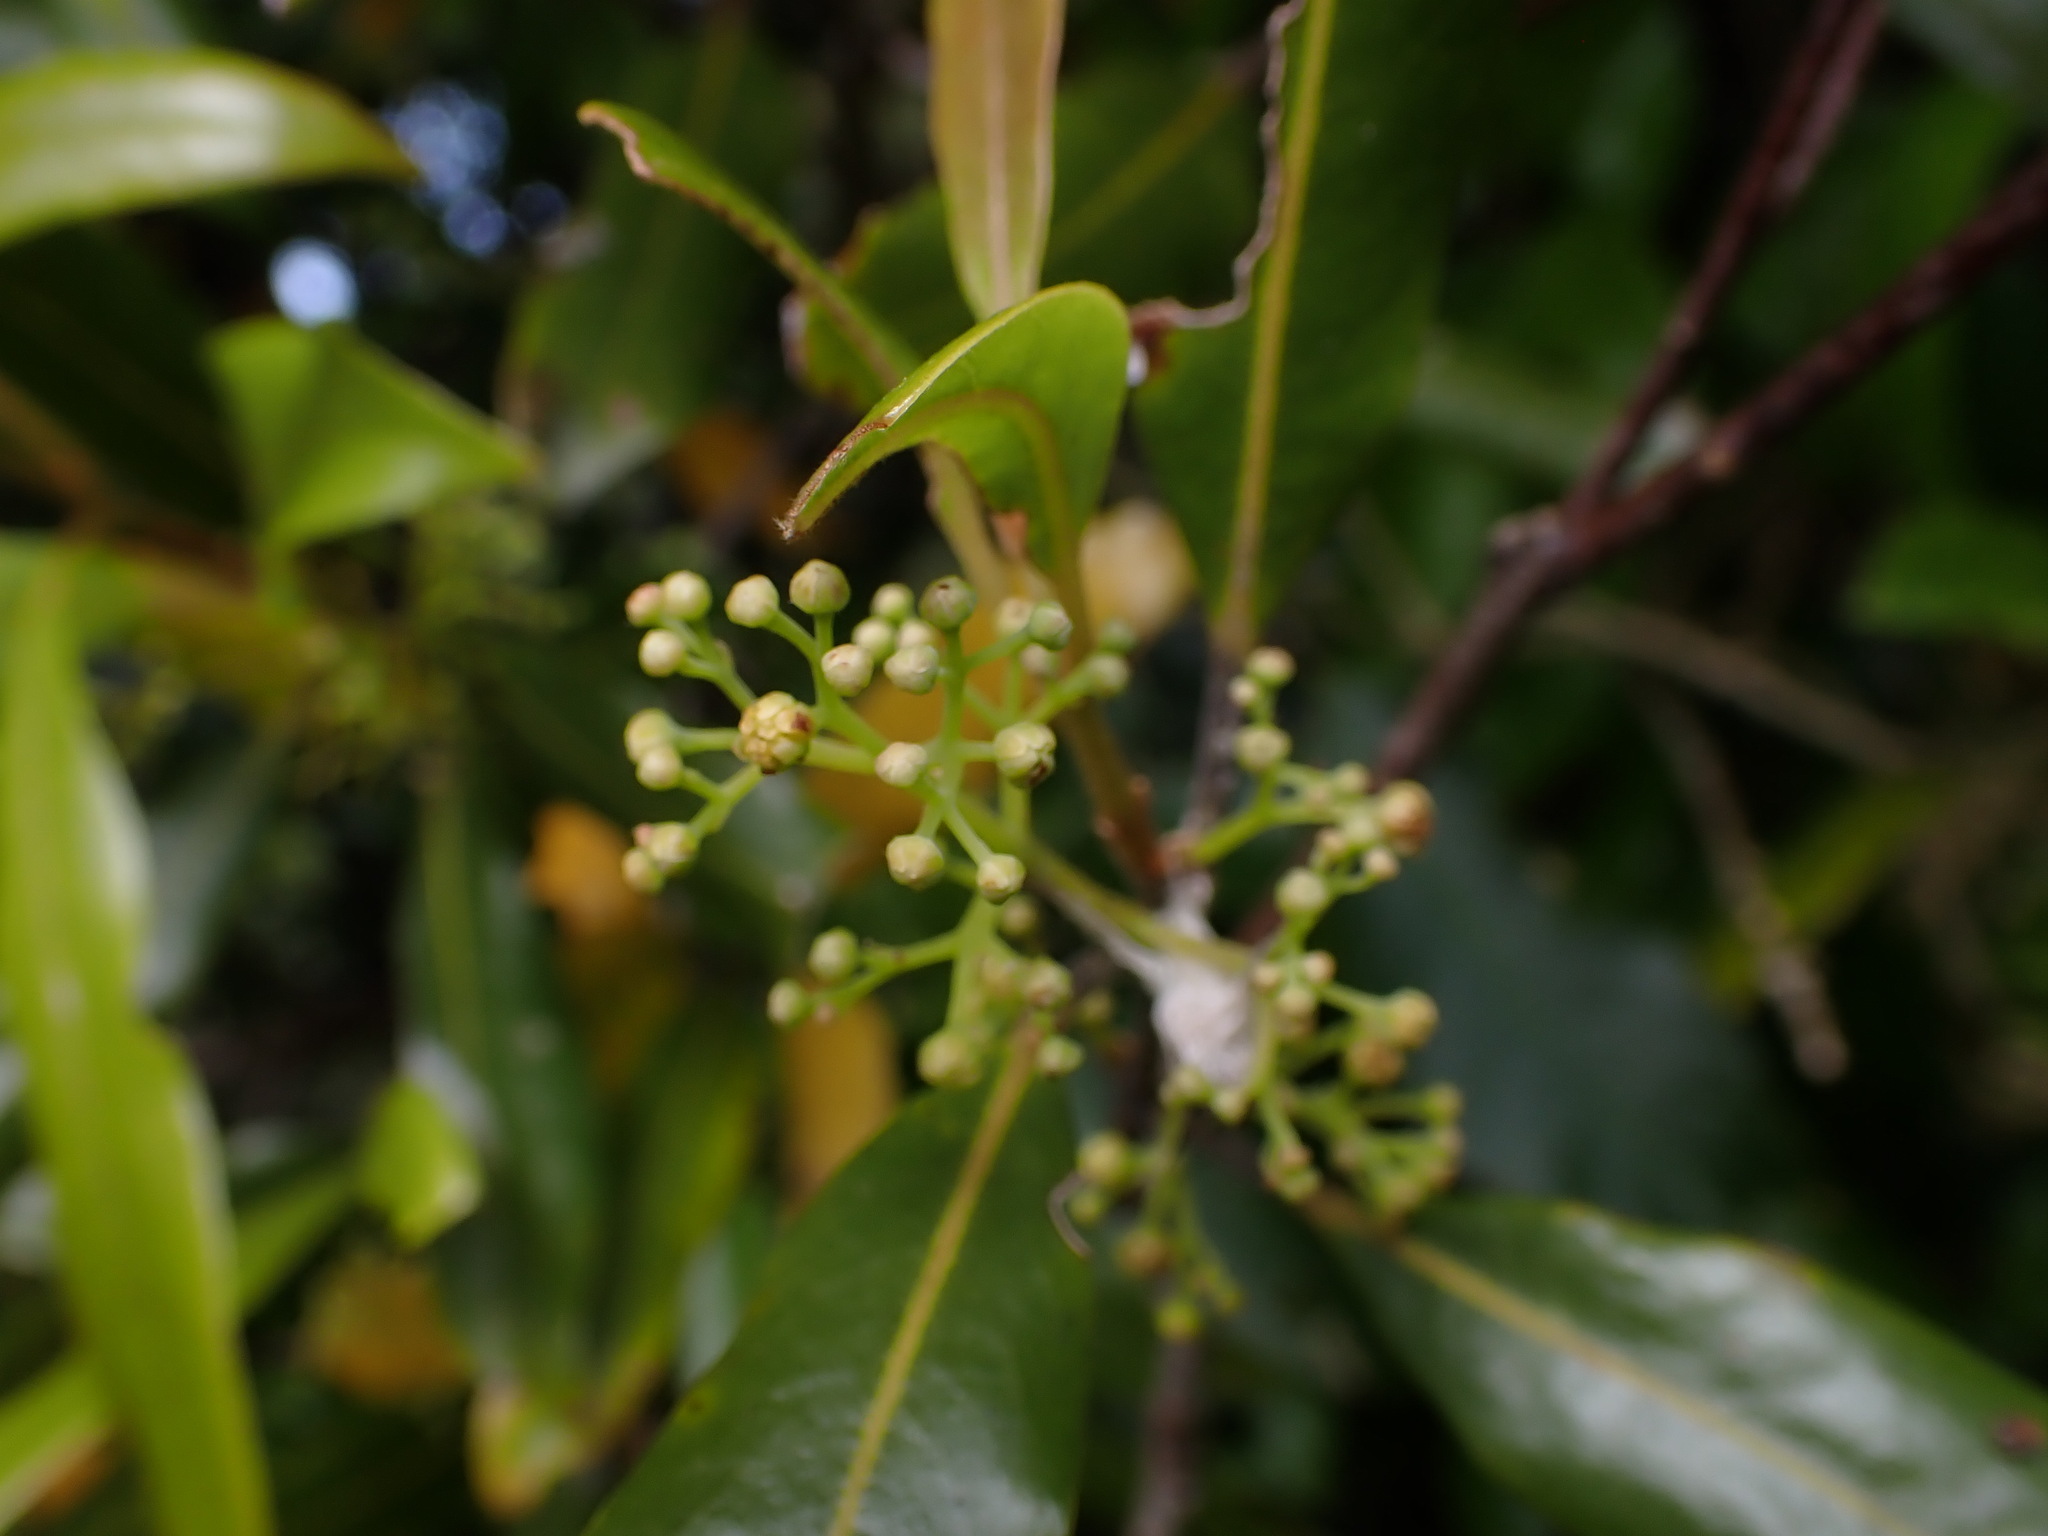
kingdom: Plantae
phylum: Tracheophyta
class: Magnoliopsida
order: Laurales
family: Lauraceae
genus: Beilschmiedia
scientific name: Beilschmiedia tawa
